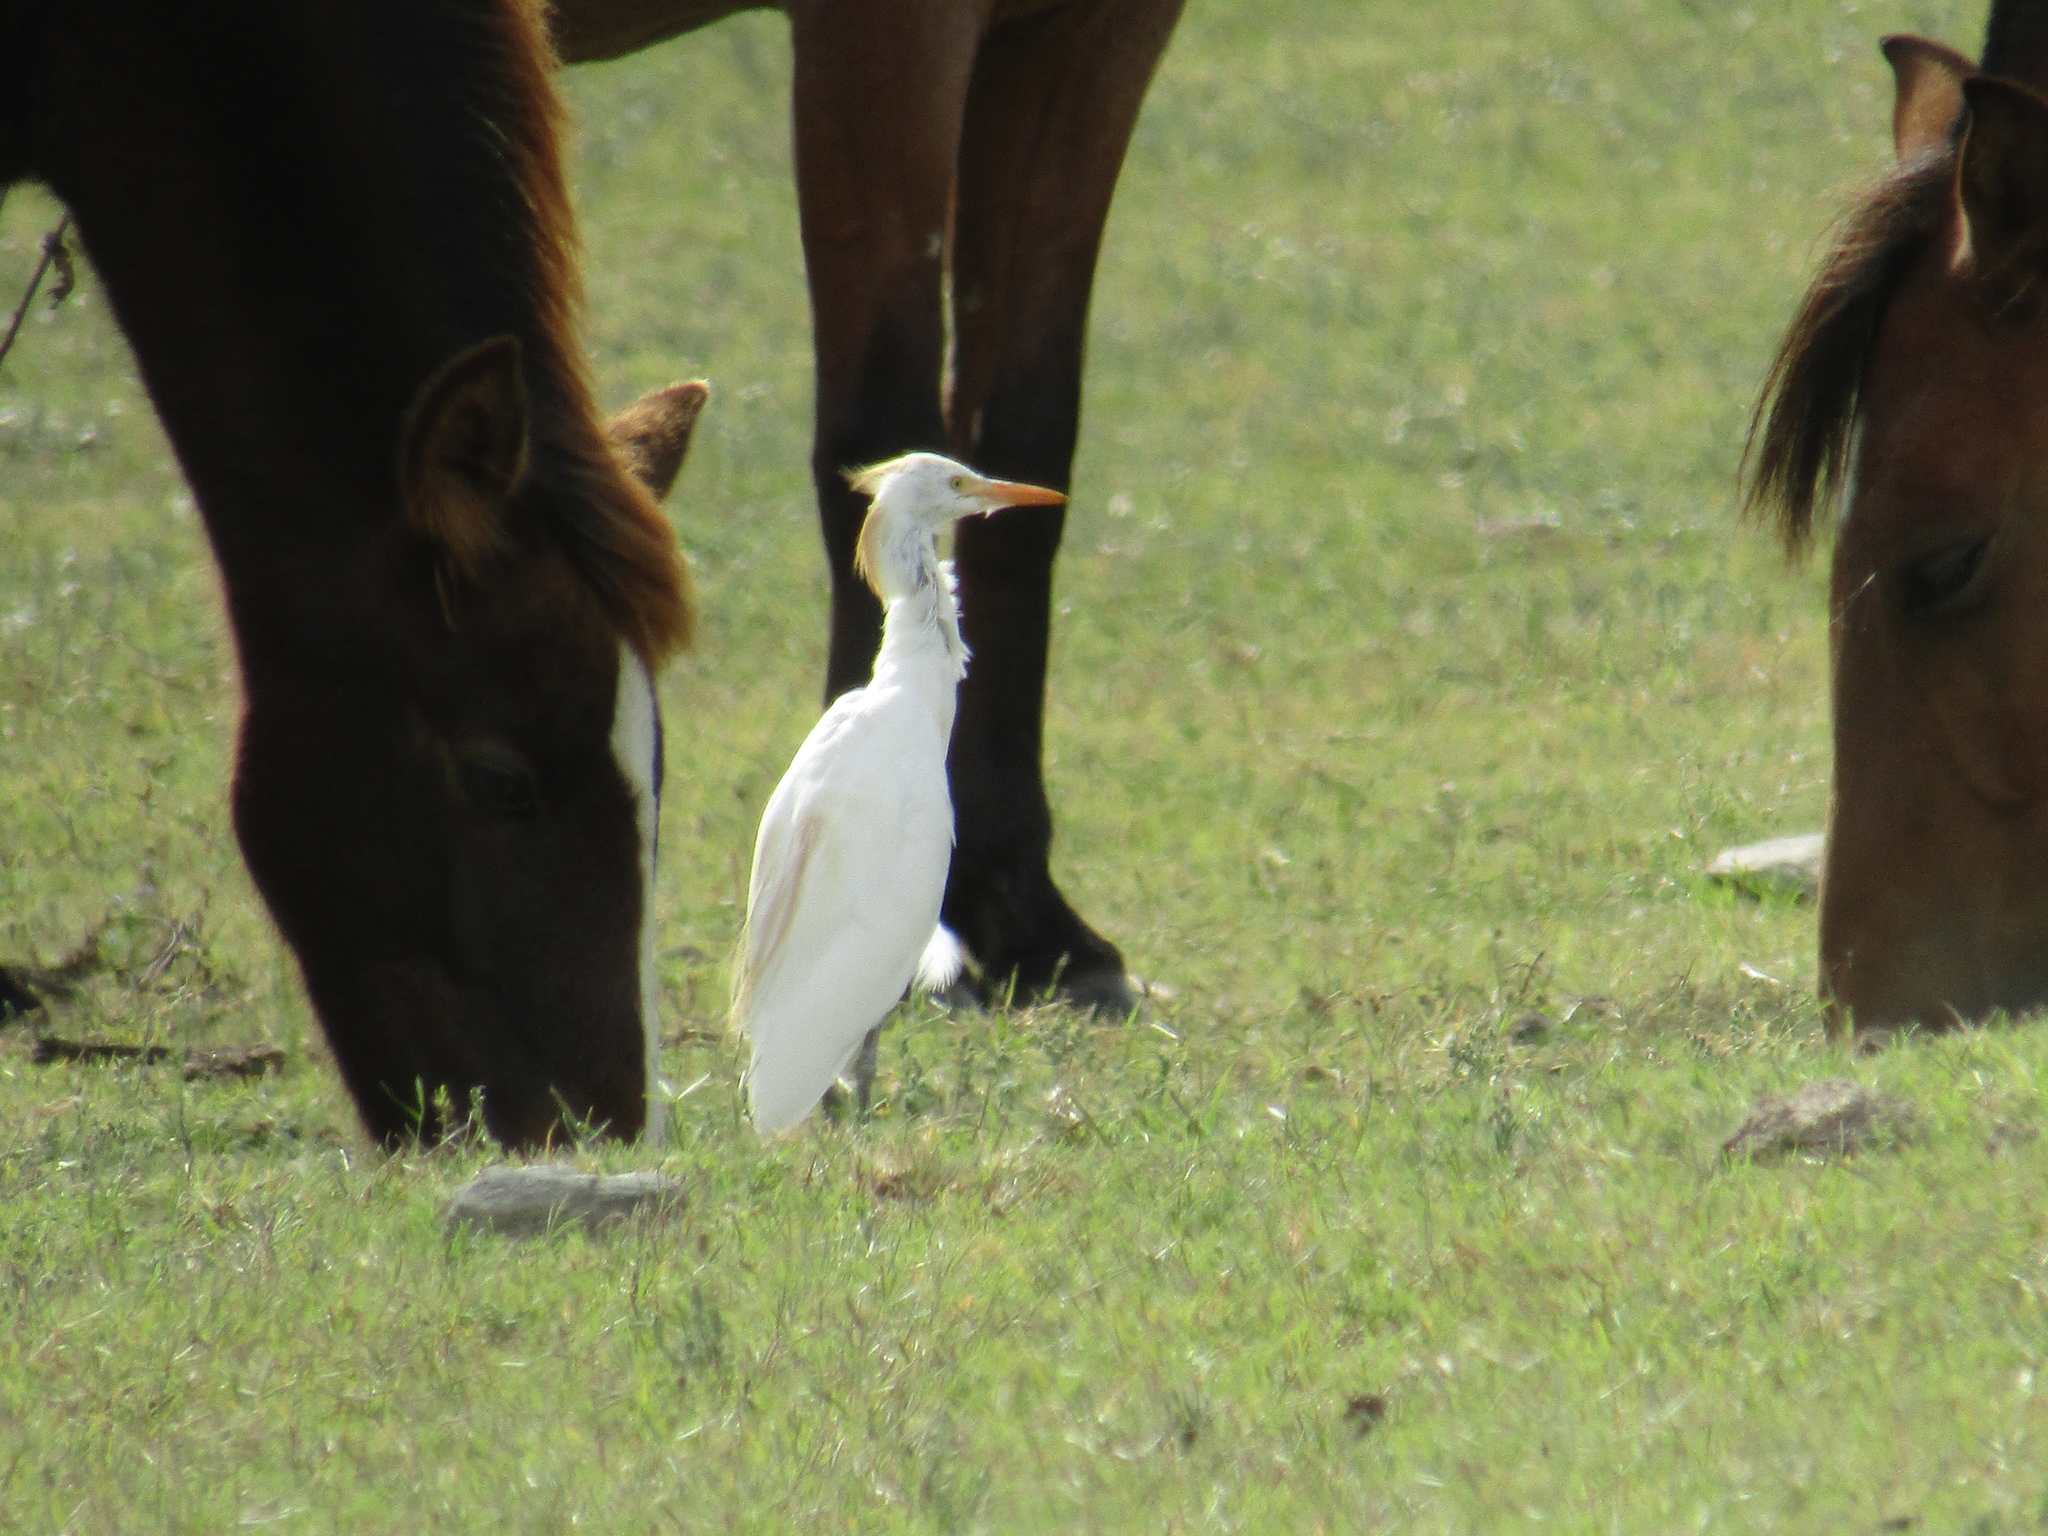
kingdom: Animalia
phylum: Chordata
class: Aves
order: Pelecaniformes
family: Ardeidae
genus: Bubulcus
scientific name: Bubulcus ibis
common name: Cattle egret
